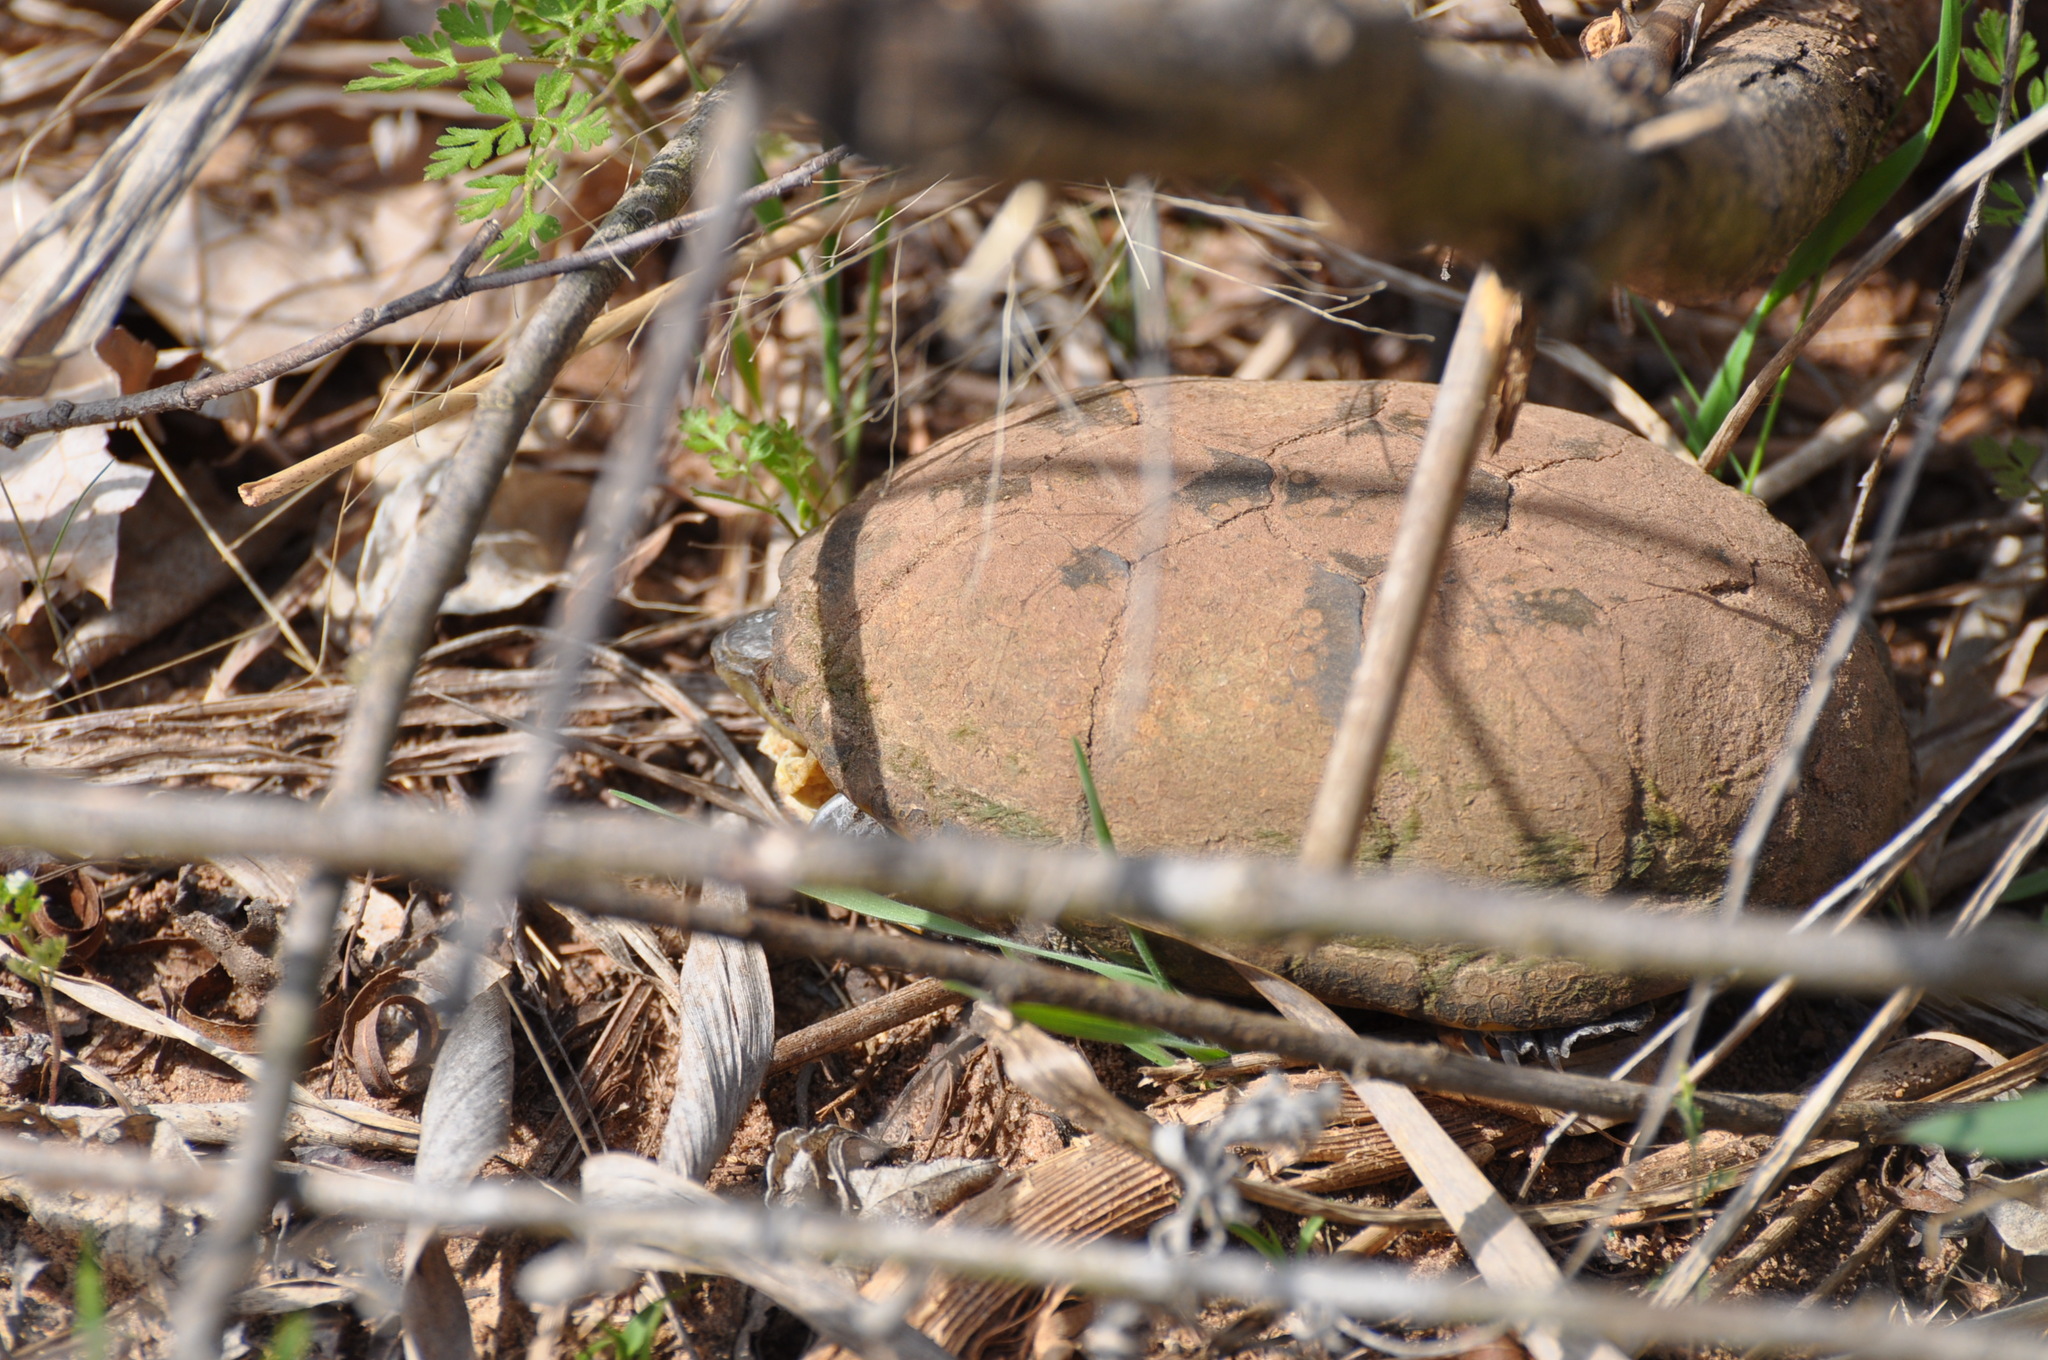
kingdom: Animalia
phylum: Chordata
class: Testudines
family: Kinosternidae
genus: Kinosternon
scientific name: Kinosternon flavescens
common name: Yellow mud turtle
